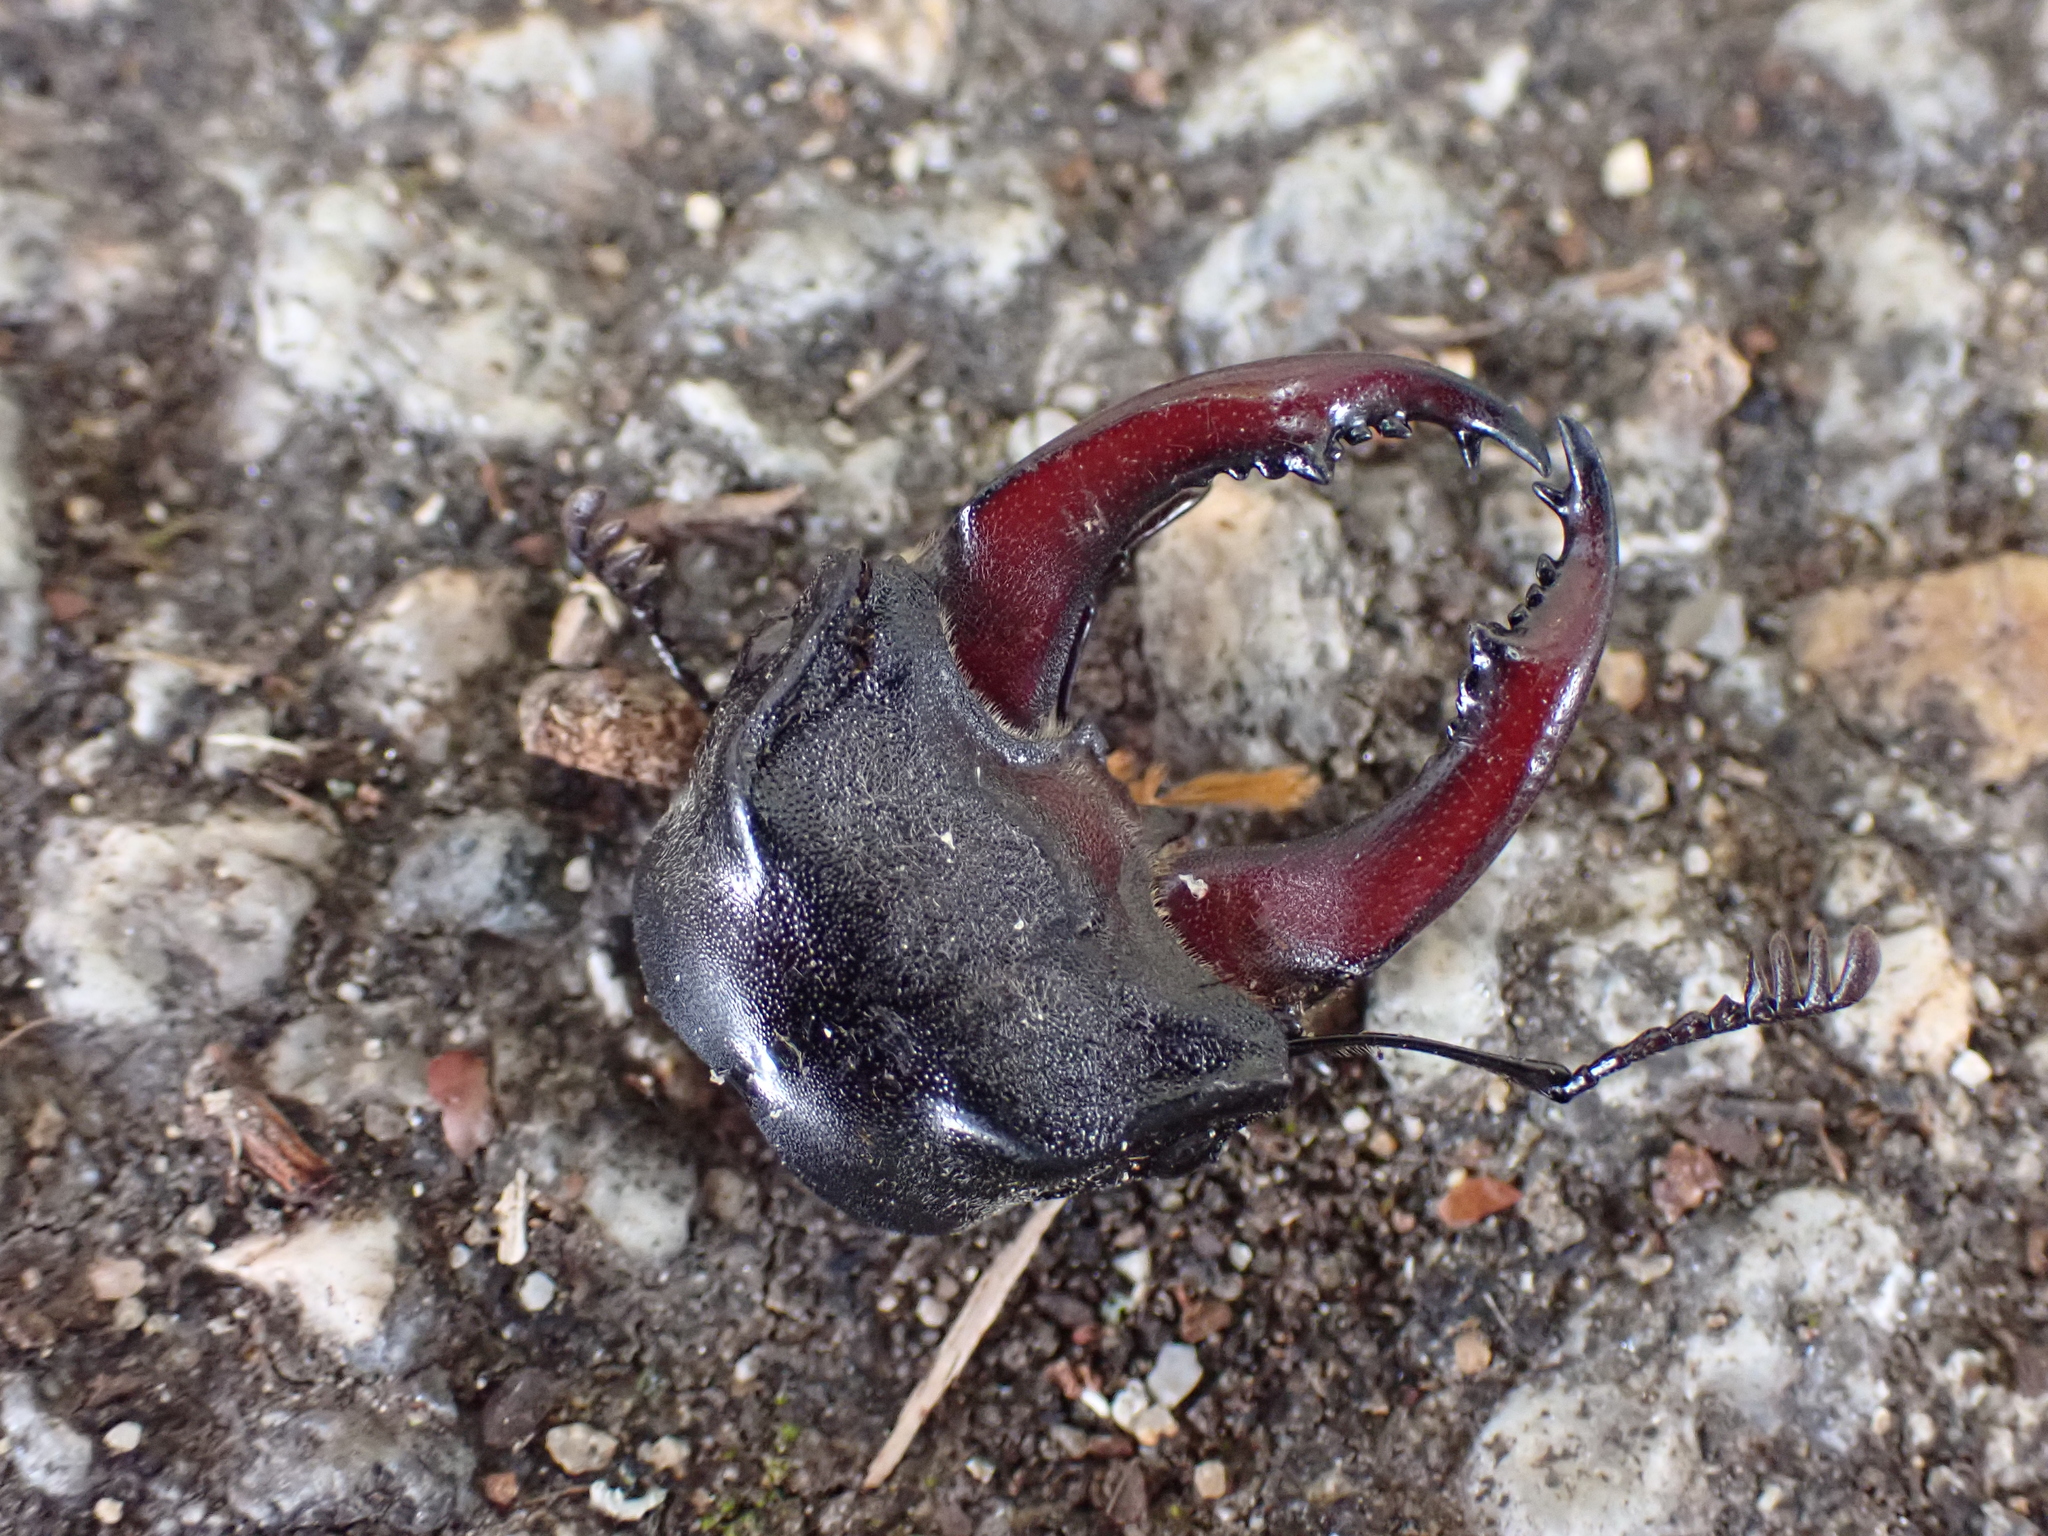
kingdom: Animalia
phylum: Arthropoda
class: Insecta
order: Coleoptera
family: Lucanidae
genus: Lucanus
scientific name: Lucanus cervus
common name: Stag beetle
